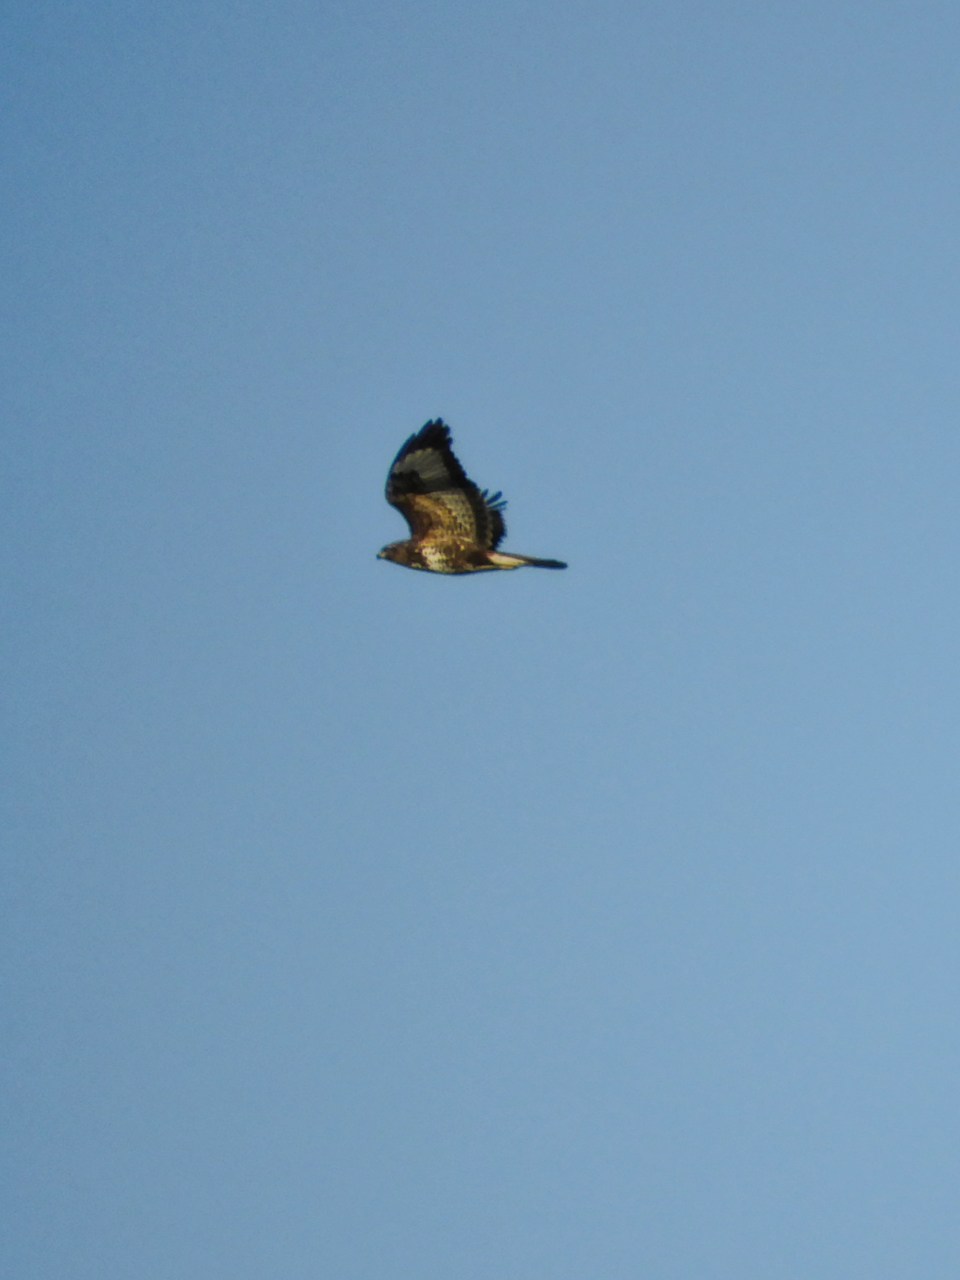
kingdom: Animalia
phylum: Chordata
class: Aves
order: Accipitriformes
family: Accipitridae
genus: Buteo
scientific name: Buteo buteo
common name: Common buzzard
